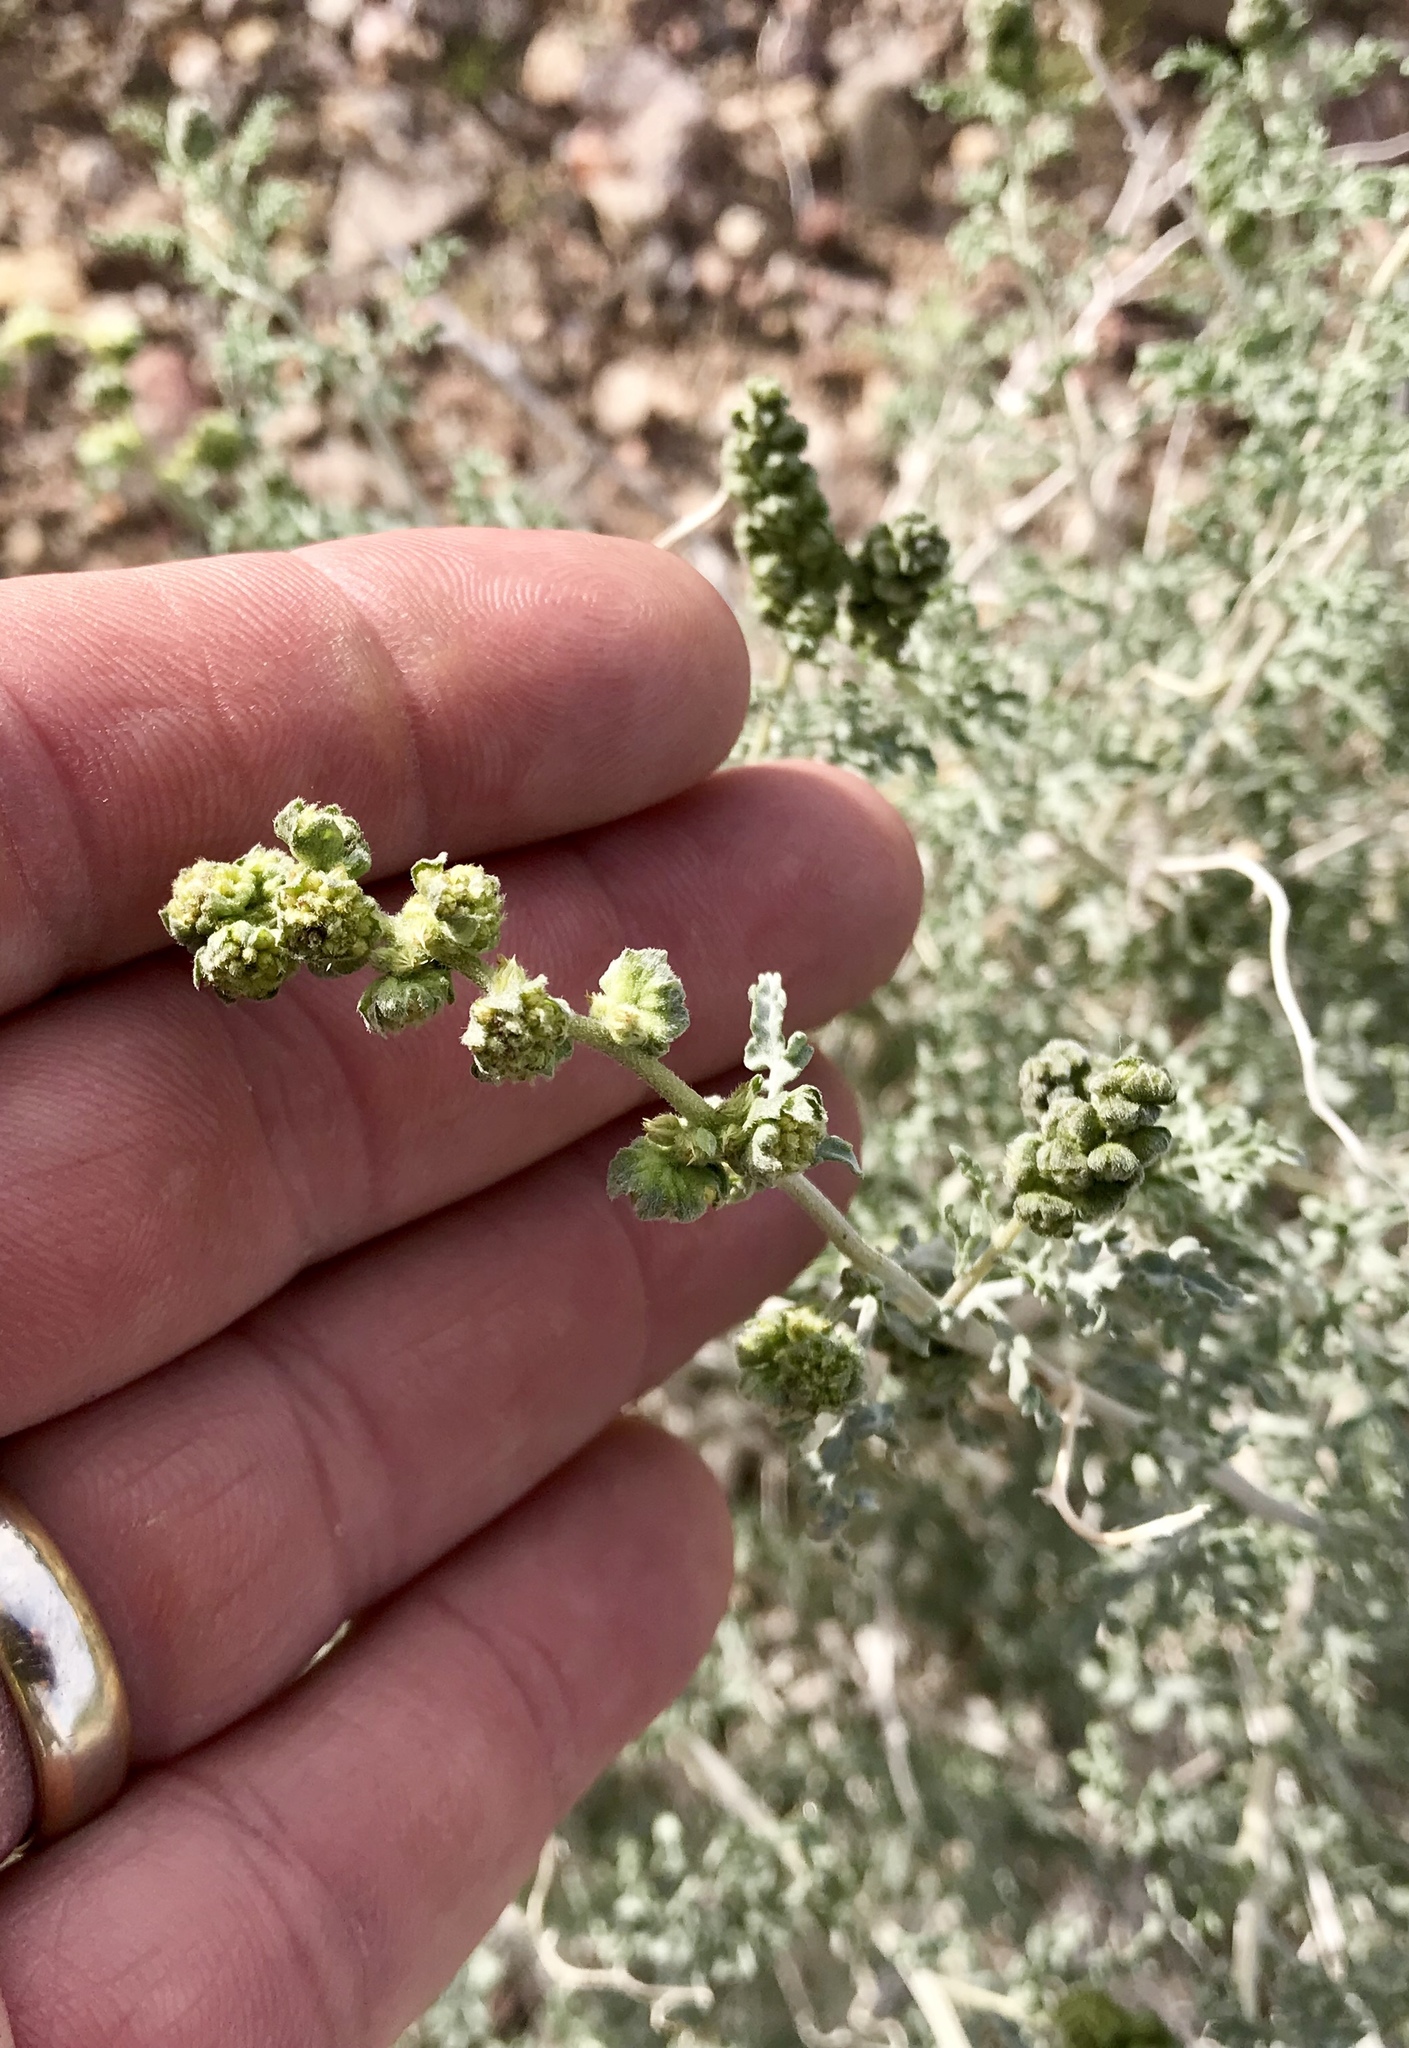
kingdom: Plantae
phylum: Tracheophyta
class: Magnoliopsida
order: Asterales
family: Asteraceae
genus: Ambrosia
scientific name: Ambrosia dumosa
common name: Bur-sage
